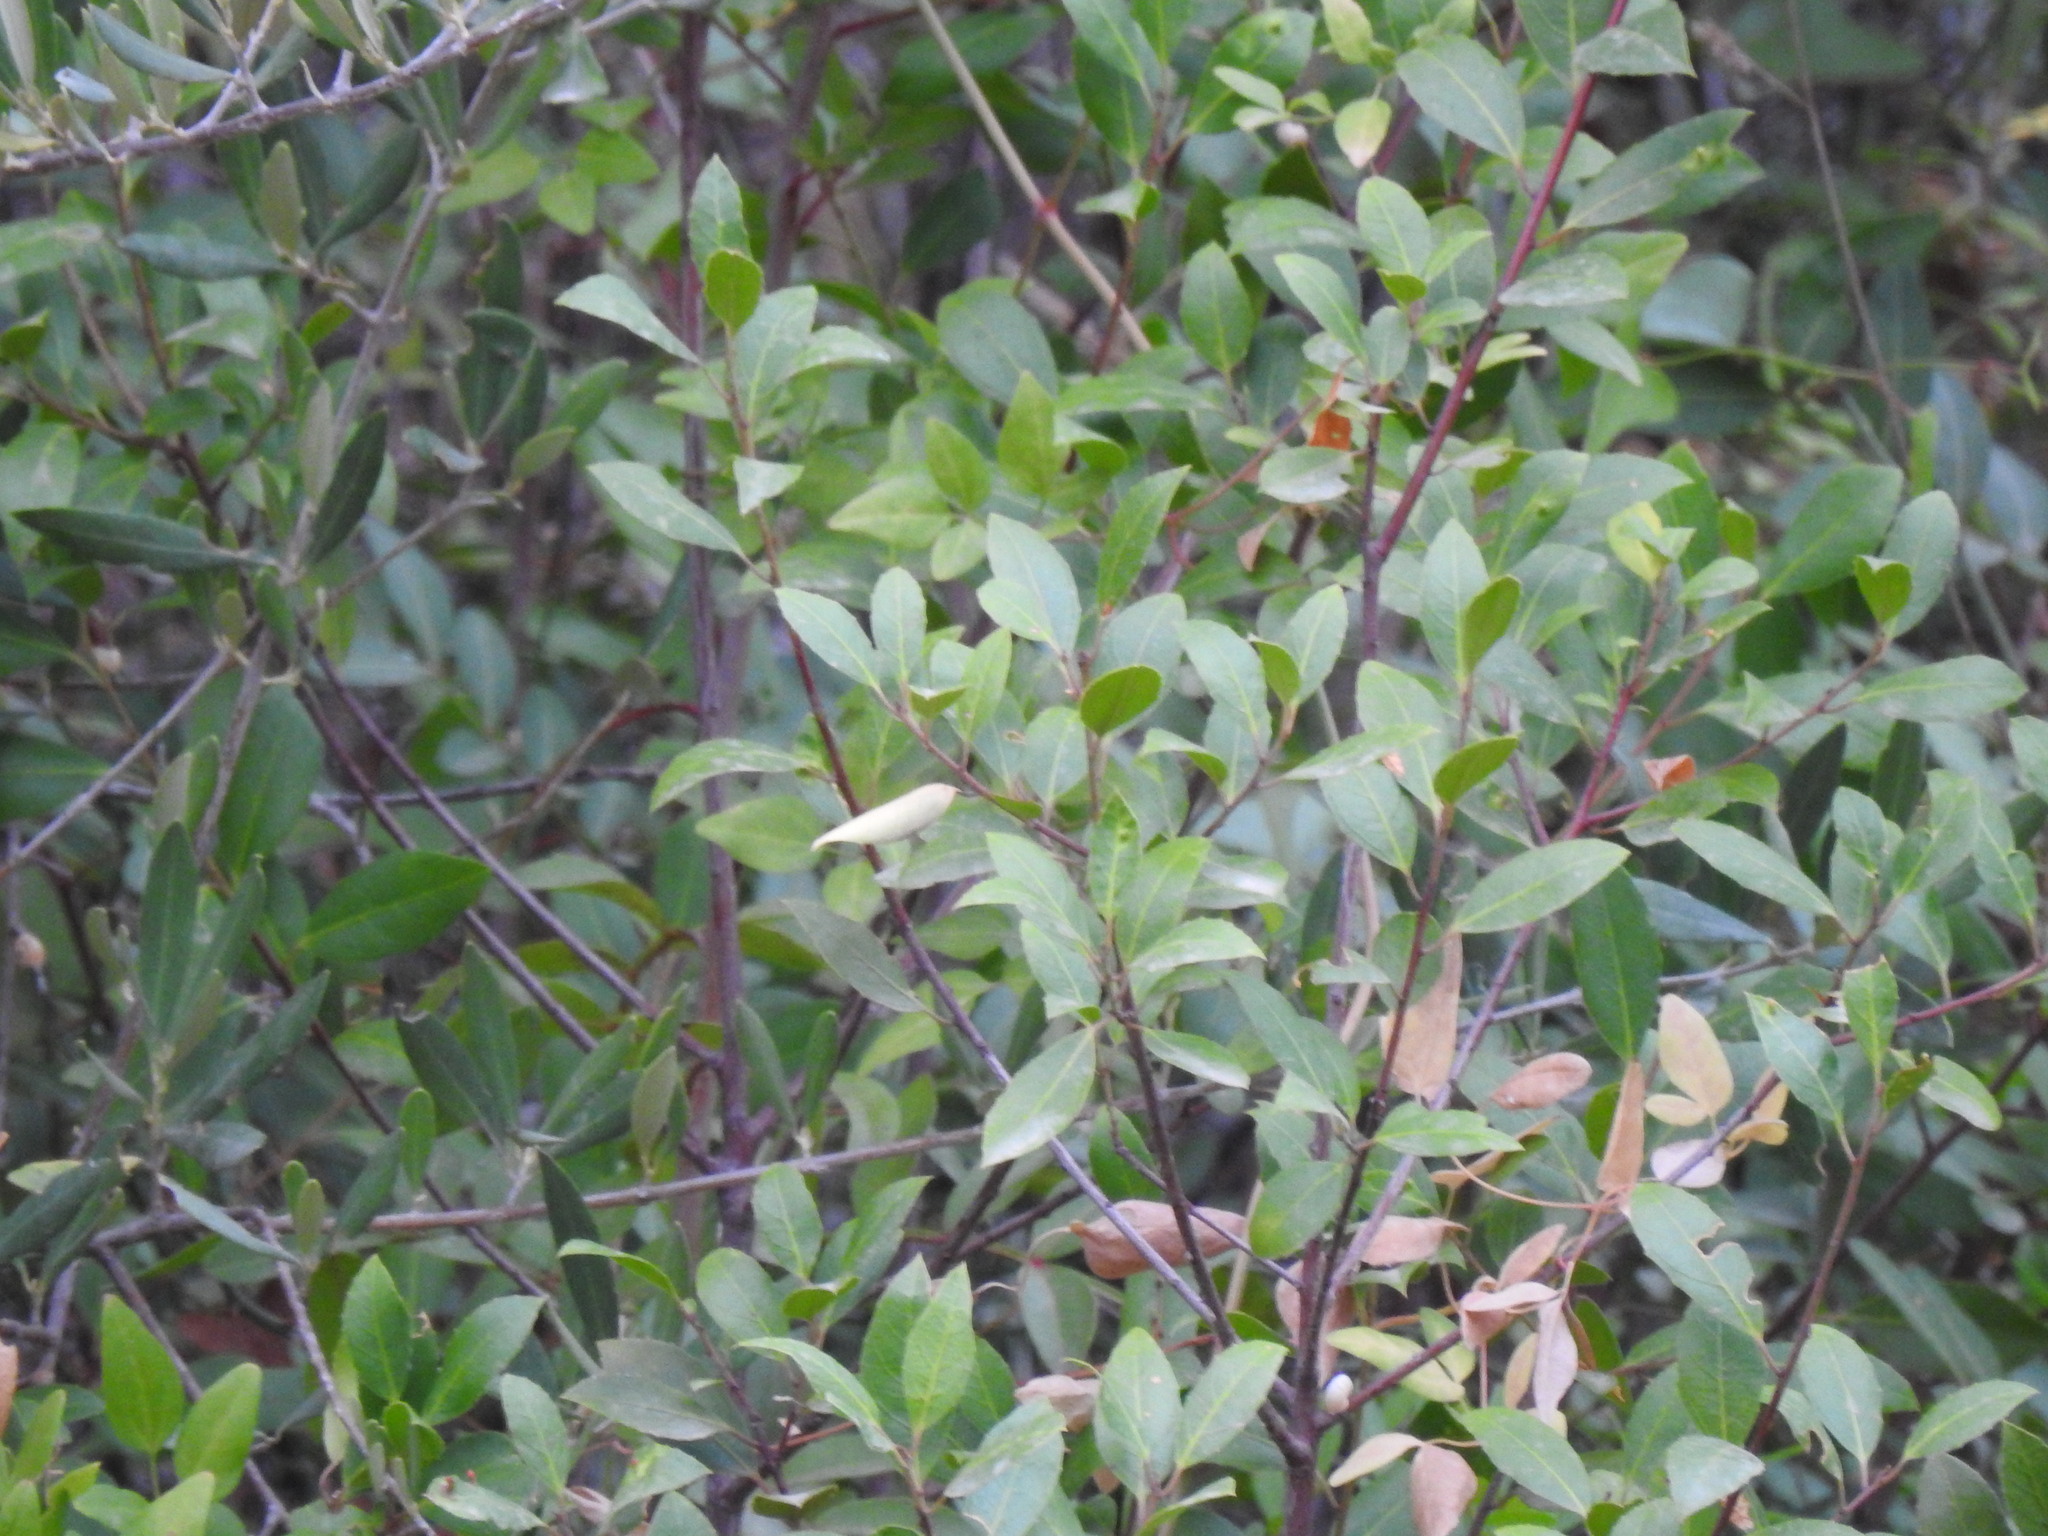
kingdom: Plantae
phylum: Tracheophyta
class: Magnoliopsida
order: Rosales
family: Rhamnaceae
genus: Rhamnus
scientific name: Rhamnus alaternus
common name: Mediterranean buckthorn
